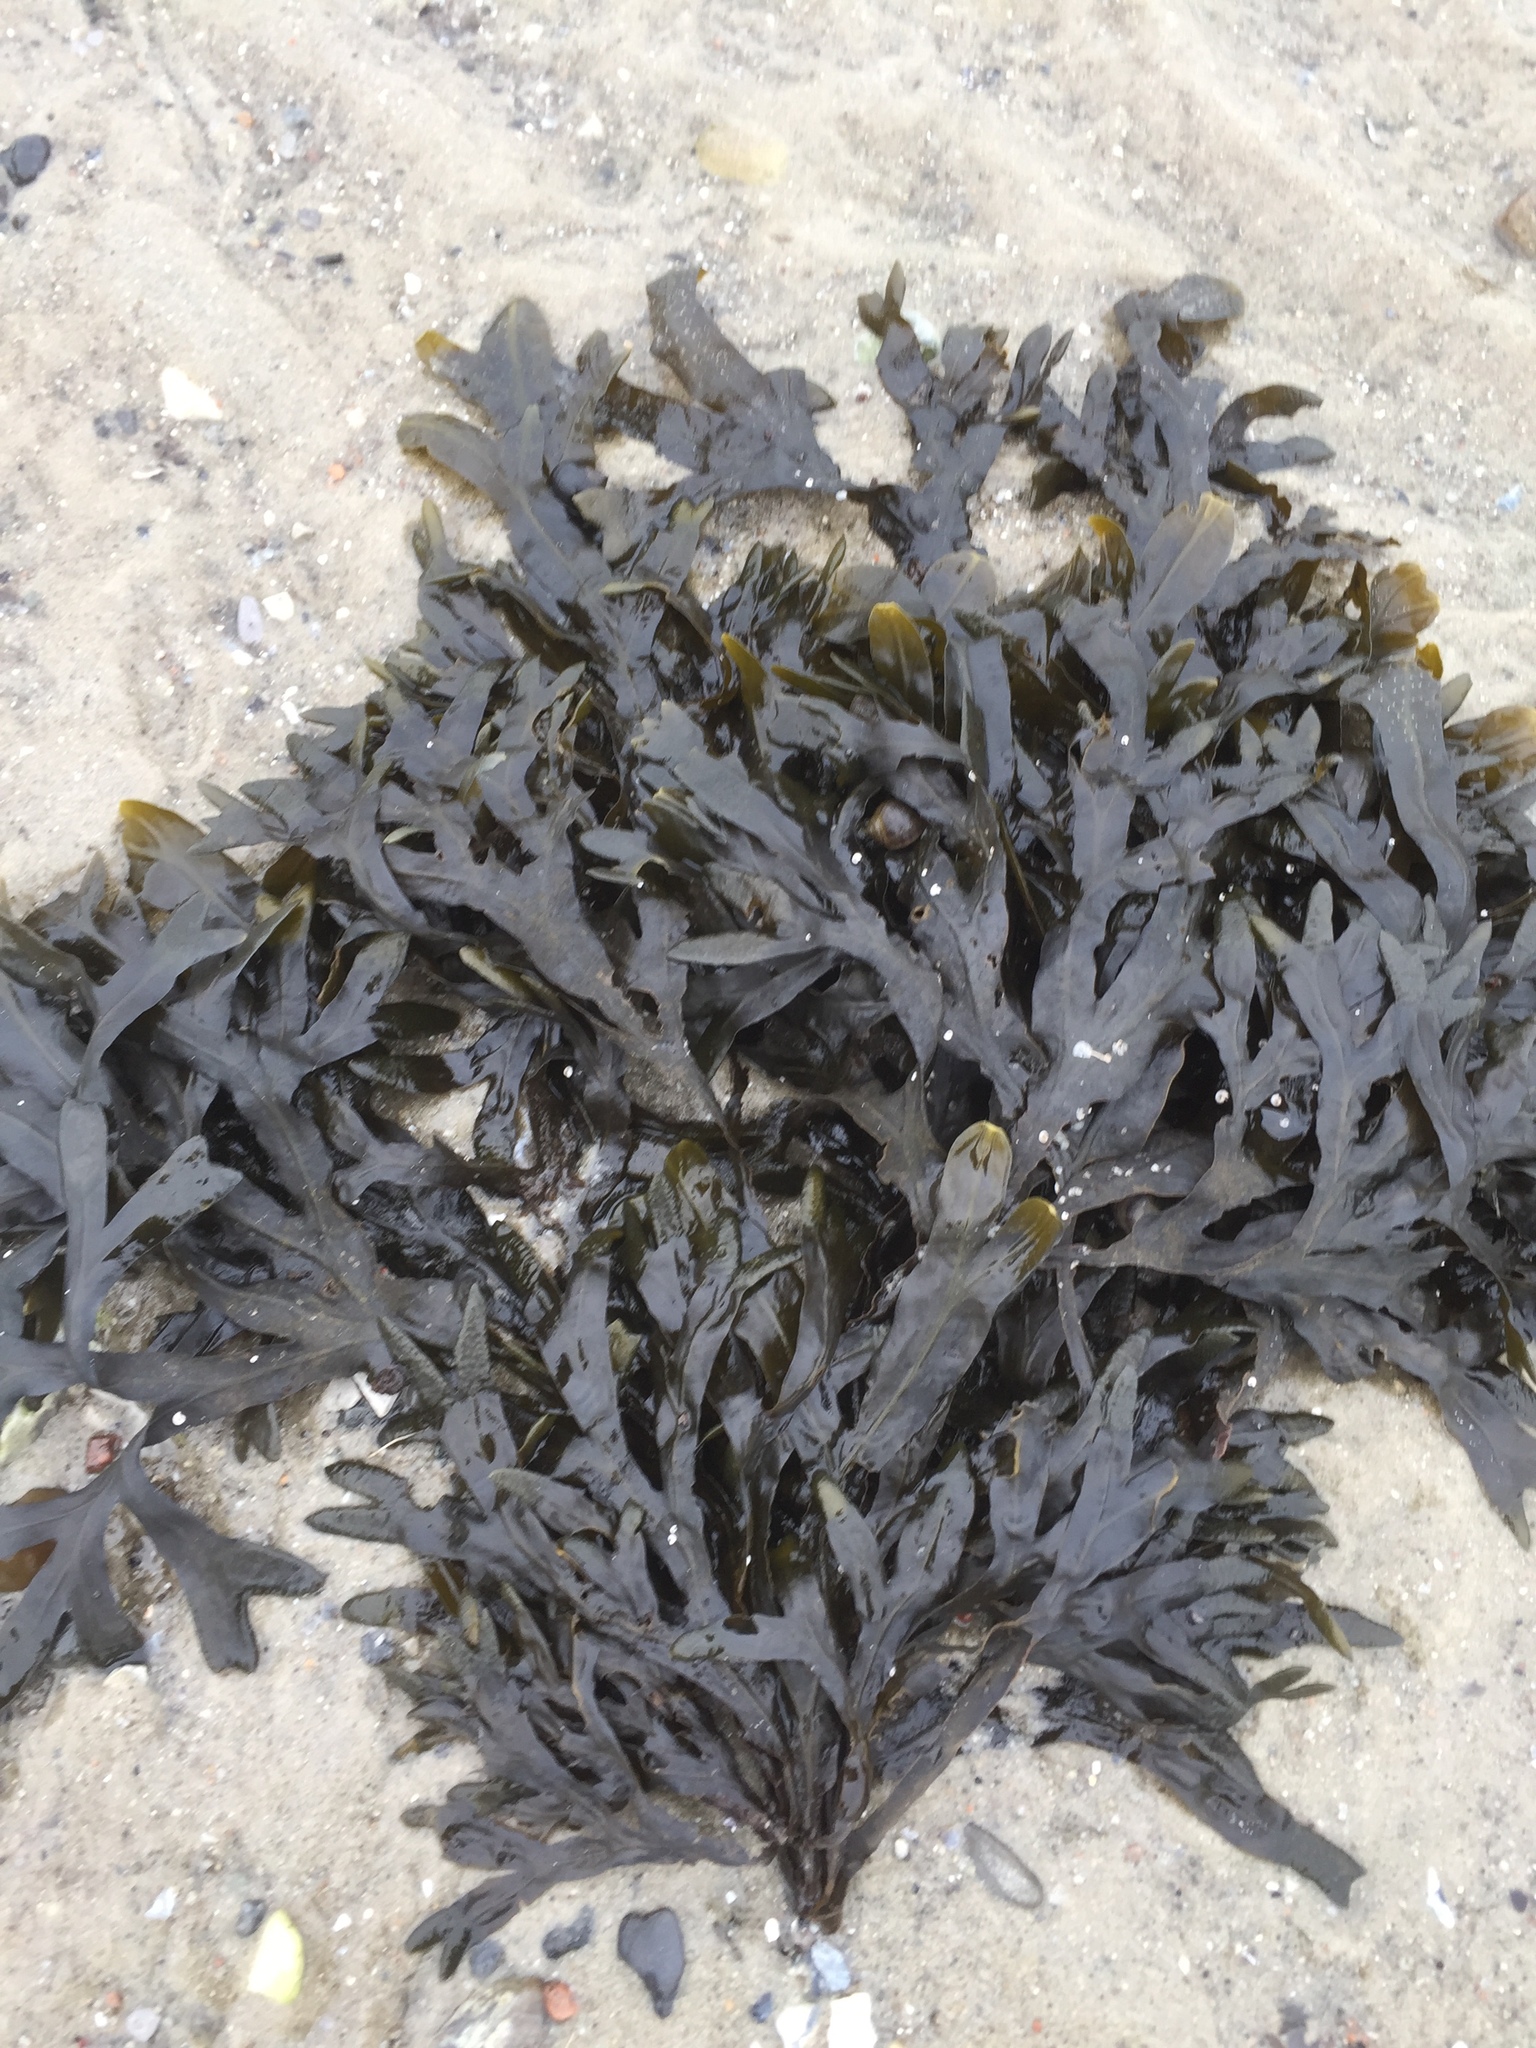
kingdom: Chromista
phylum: Ochrophyta
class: Phaeophyceae
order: Fucales
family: Fucaceae
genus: Fucus
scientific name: Fucus spiralis
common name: Spiral wrack
